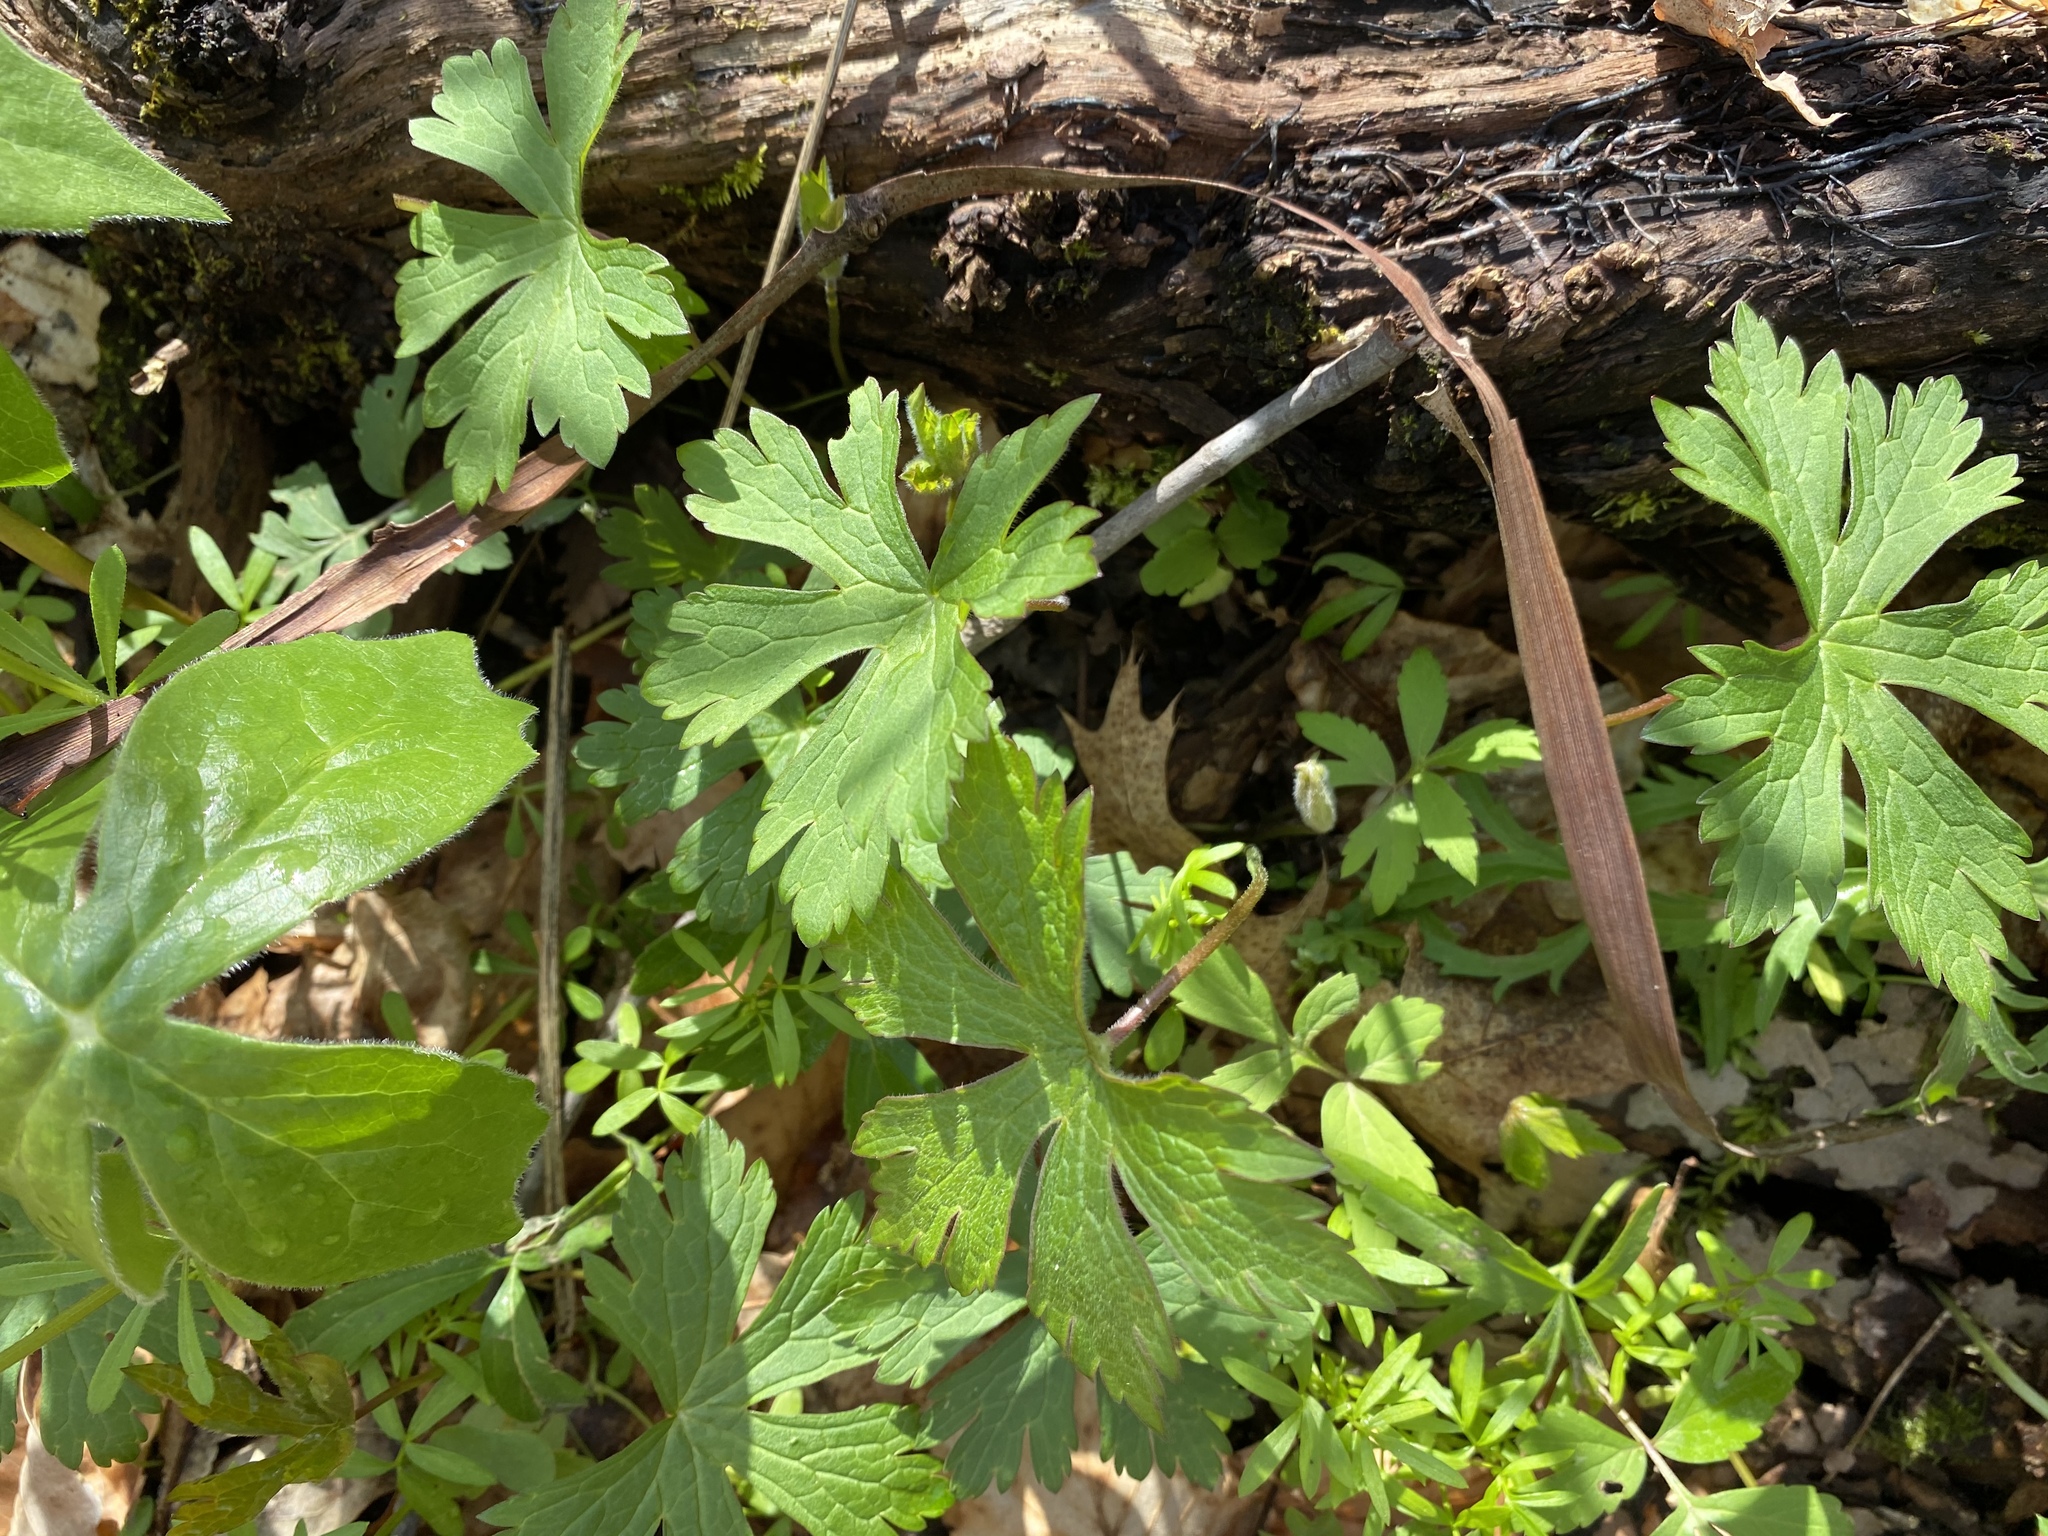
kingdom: Plantae
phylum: Tracheophyta
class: Magnoliopsida
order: Geraniales
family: Geraniaceae
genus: Geranium
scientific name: Geranium maculatum
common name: Spotted geranium
